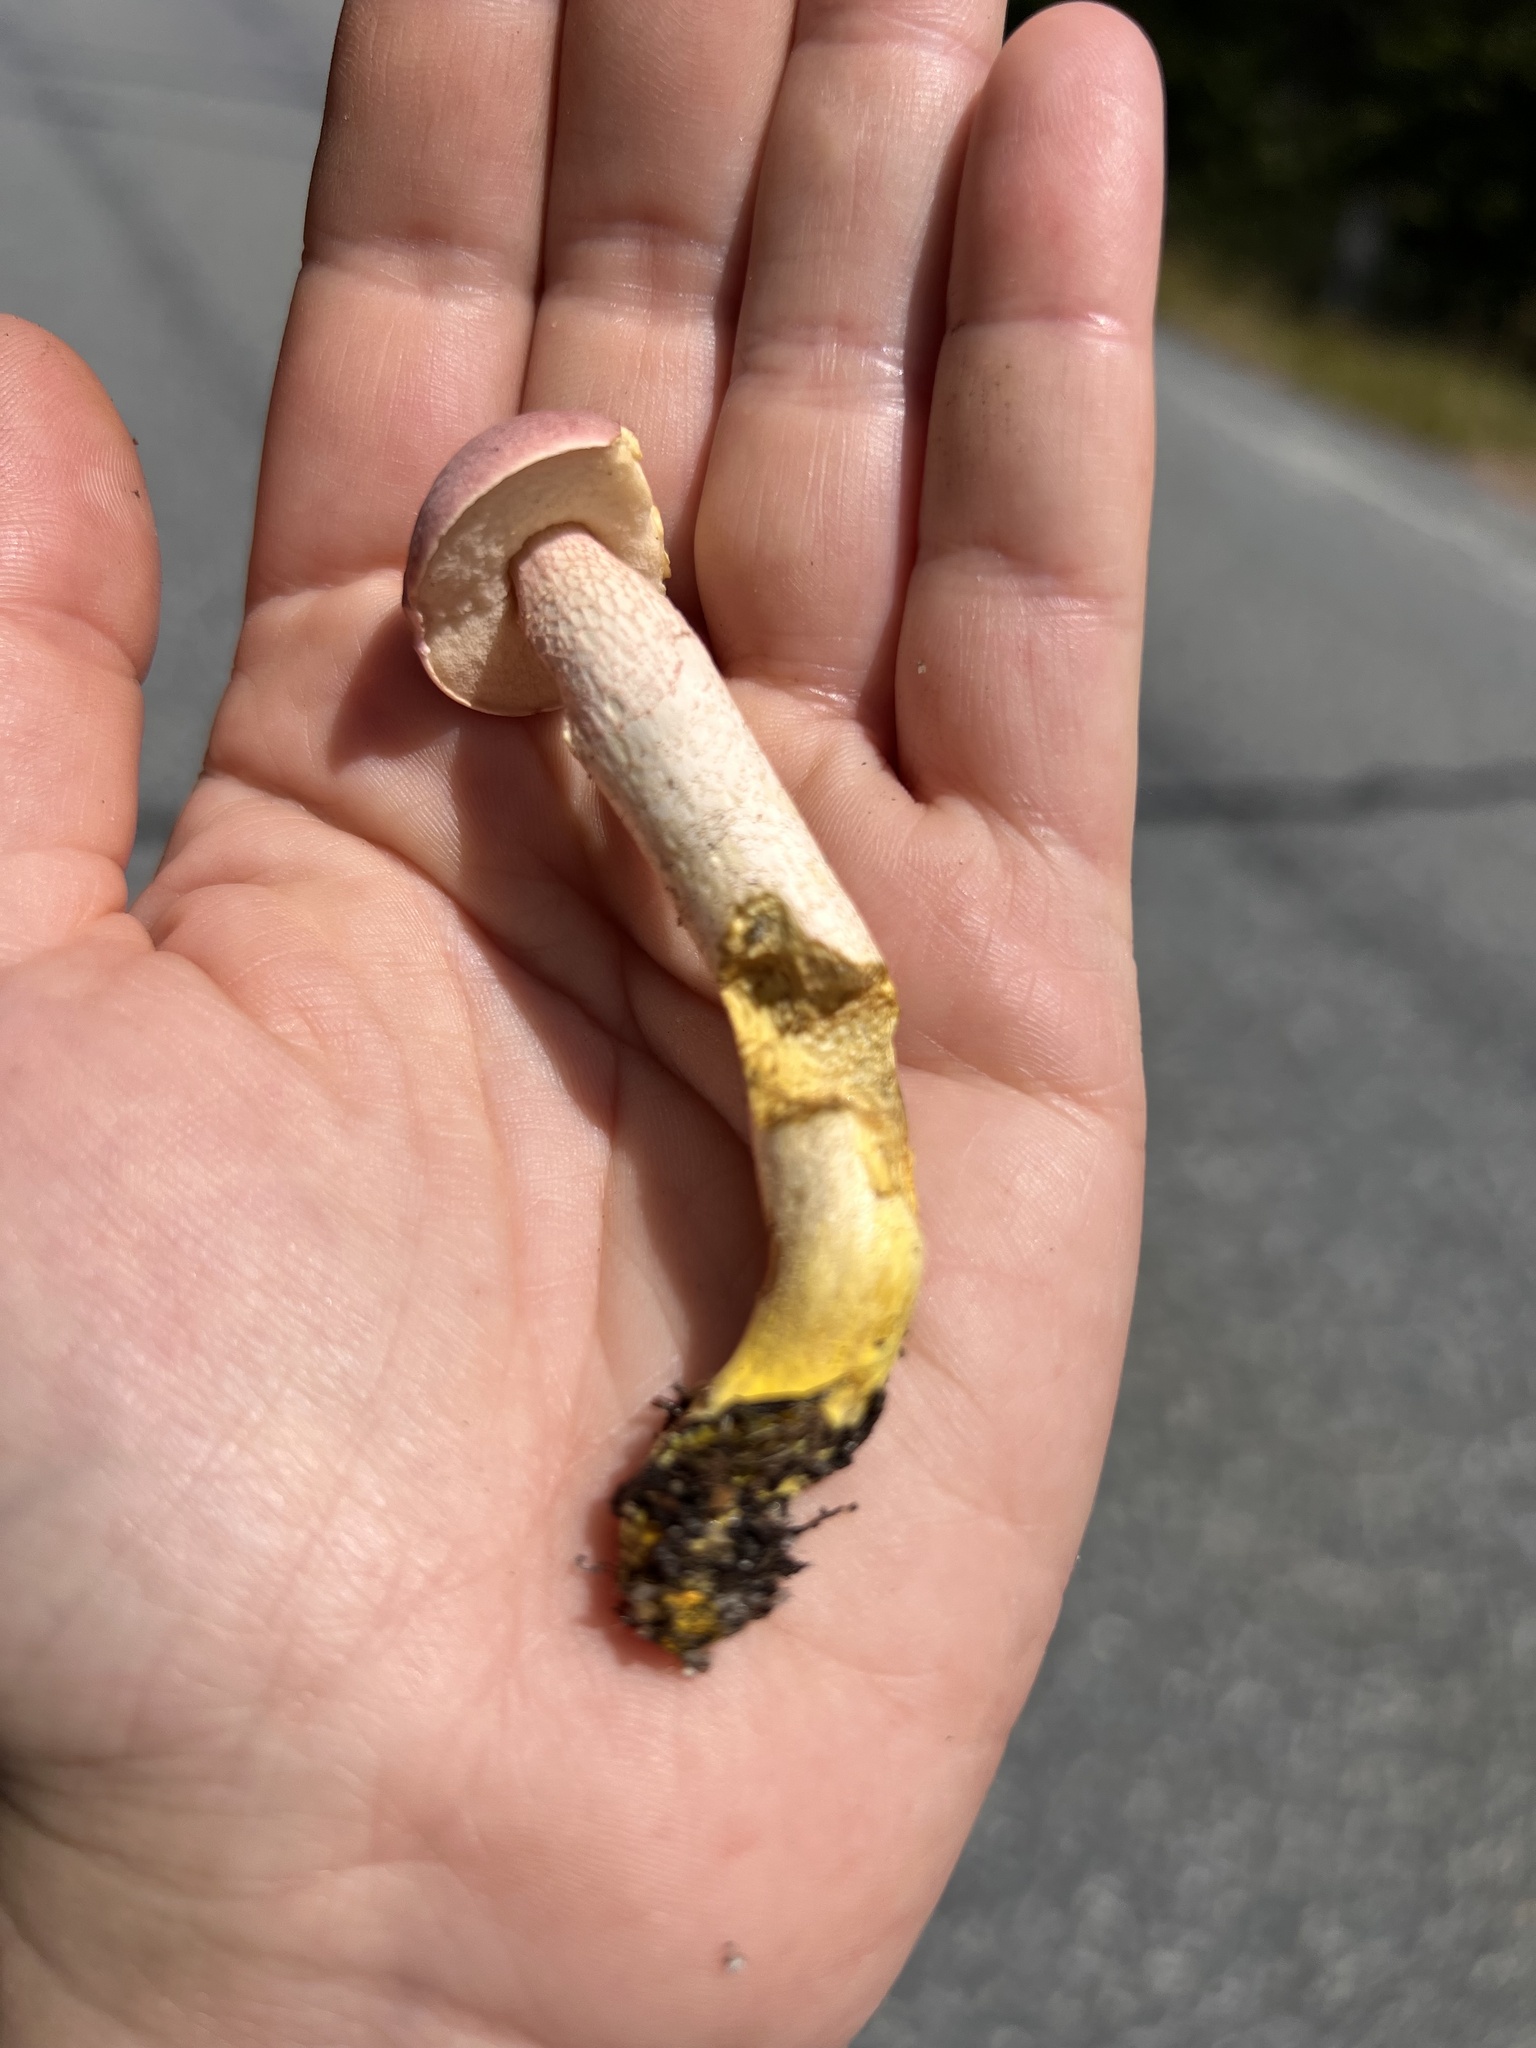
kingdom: Fungi
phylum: Basidiomycota
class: Agaricomycetes
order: Boletales
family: Boletaceae
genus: Harrya
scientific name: Harrya chromipes
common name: Chrome-footed bolete
